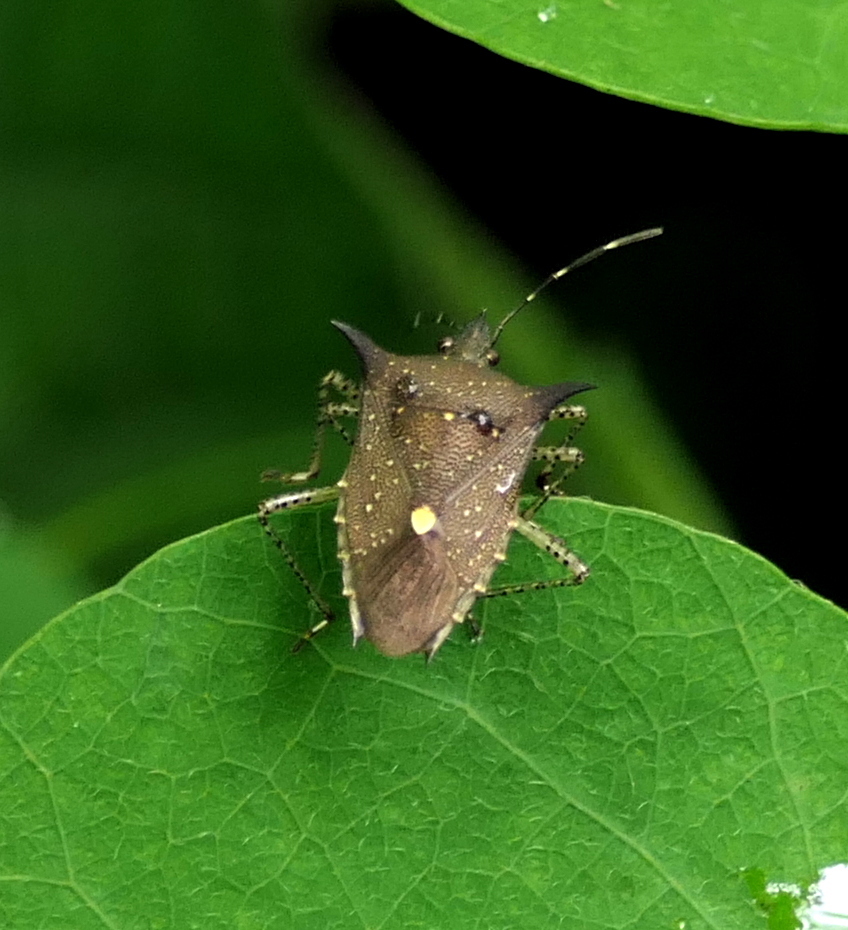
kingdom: Animalia
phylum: Arthropoda
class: Insecta
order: Hemiptera
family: Pentatomidae
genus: Proxys
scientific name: Proxys albopunctulatus
